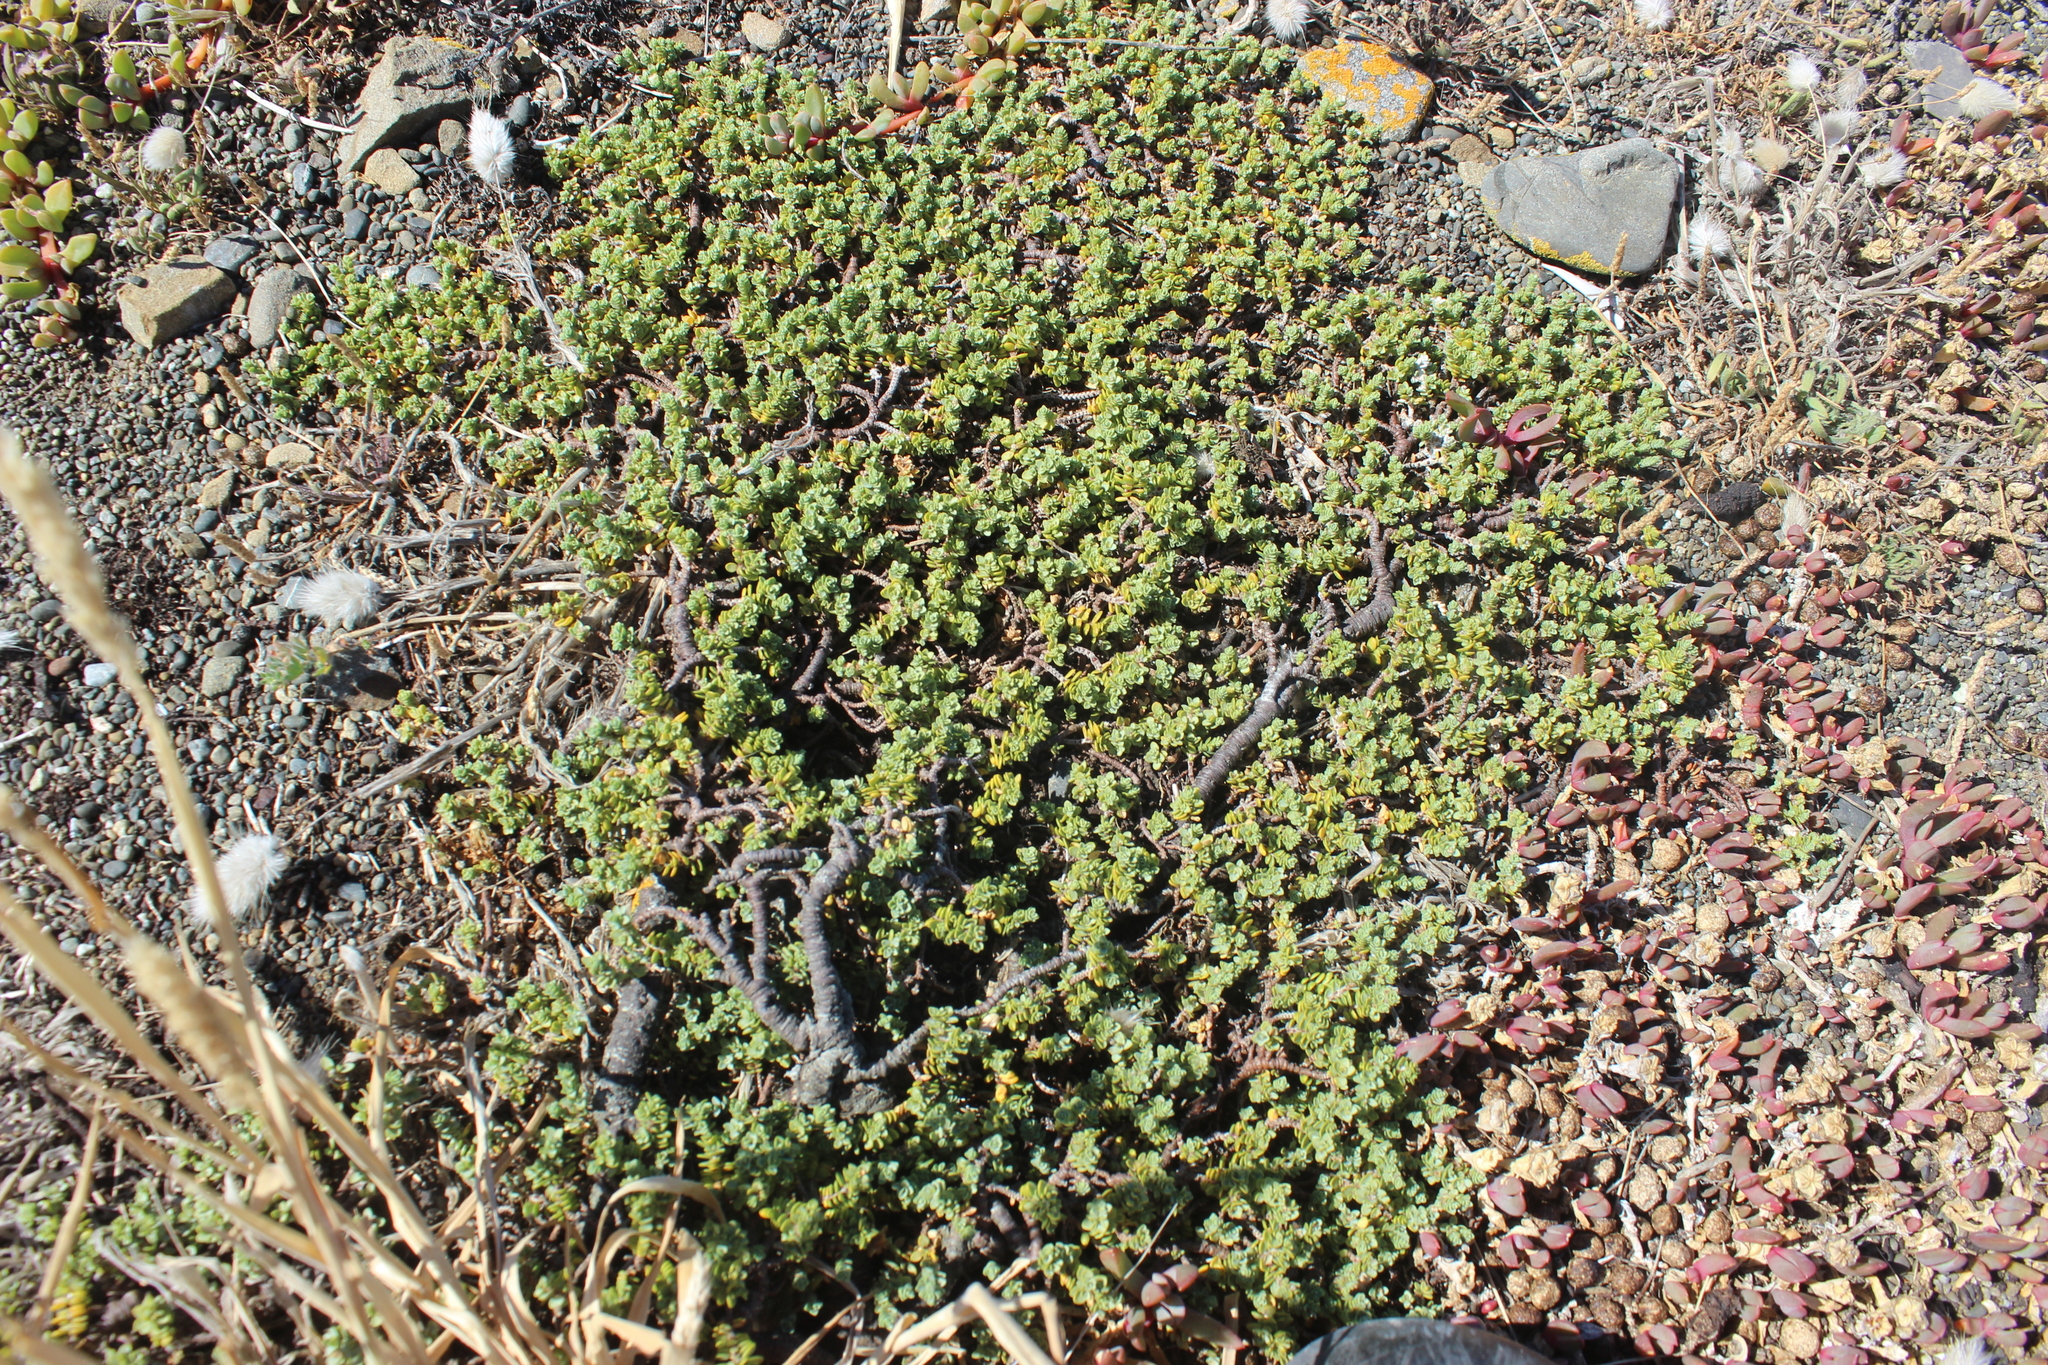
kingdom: Plantae
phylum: Tracheophyta
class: Magnoliopsida
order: Malvales
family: Thymelaeaceae
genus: Pimelea
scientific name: Pimelea carnosa
